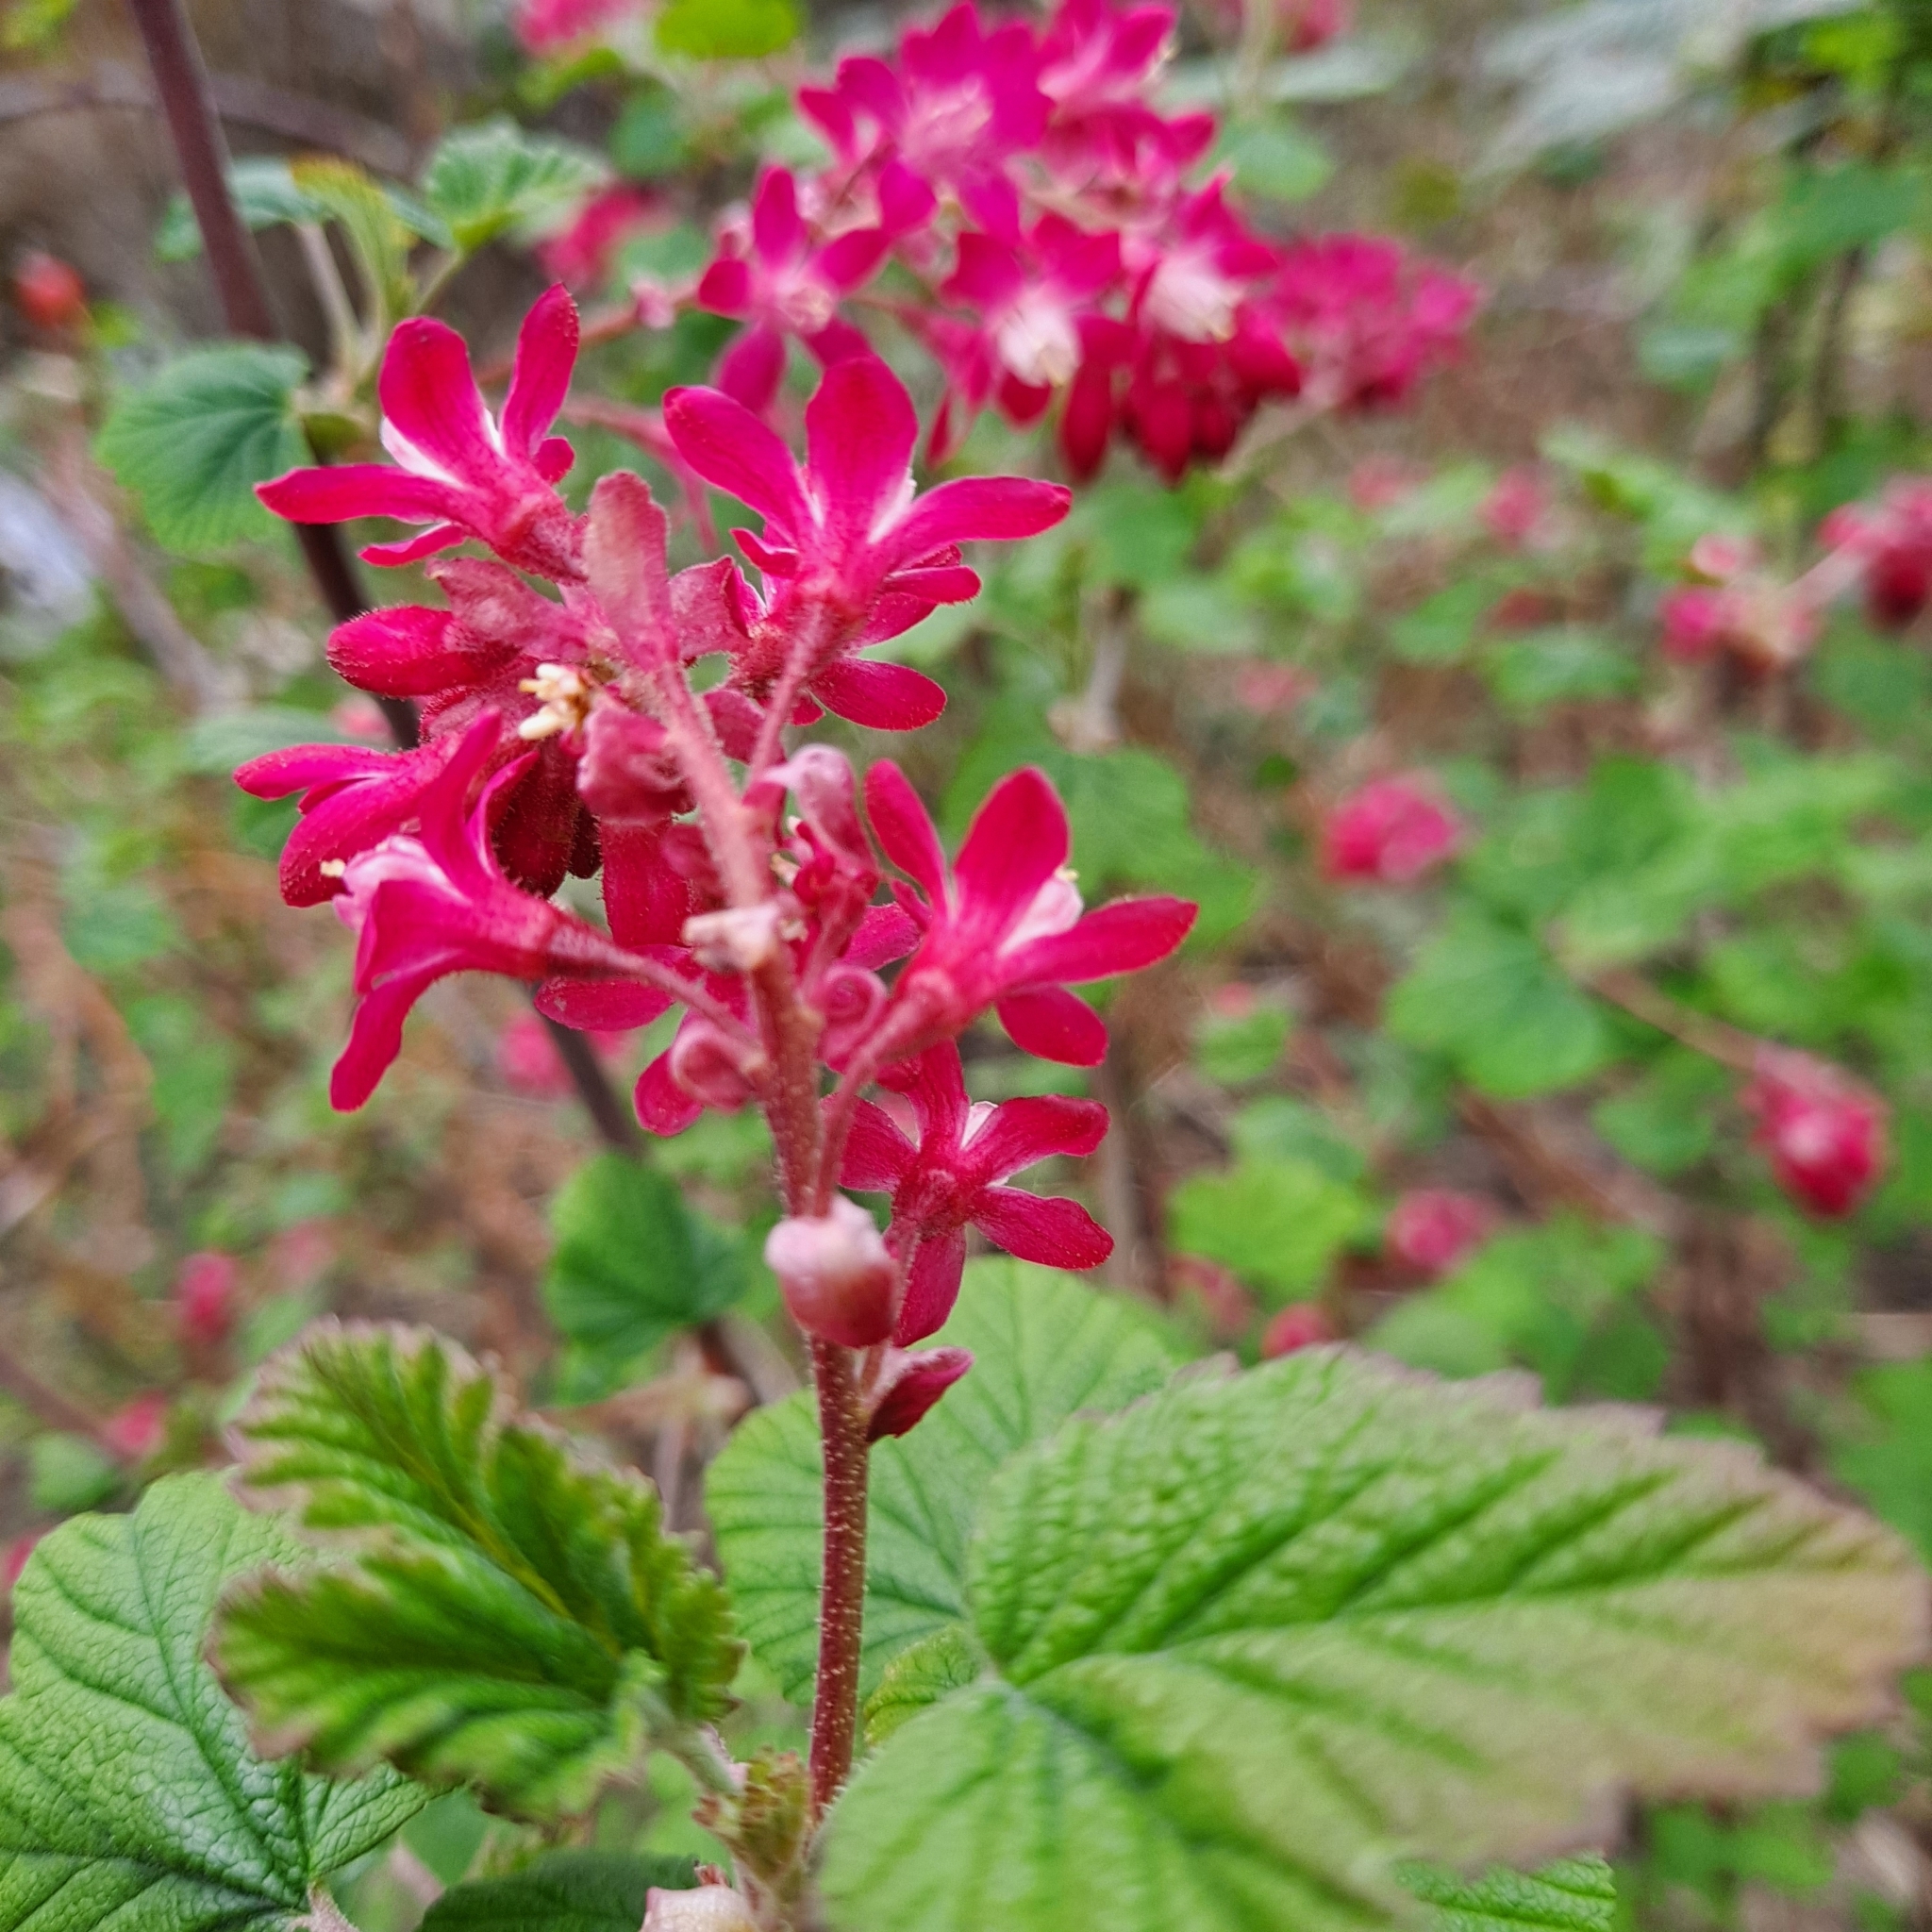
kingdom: Plantae
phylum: Tracheophyta
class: Magnoliopsida
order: Saxifragales
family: Grossulariaceae
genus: Ribes
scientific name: Ribes sanguineum
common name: Flowering currant
